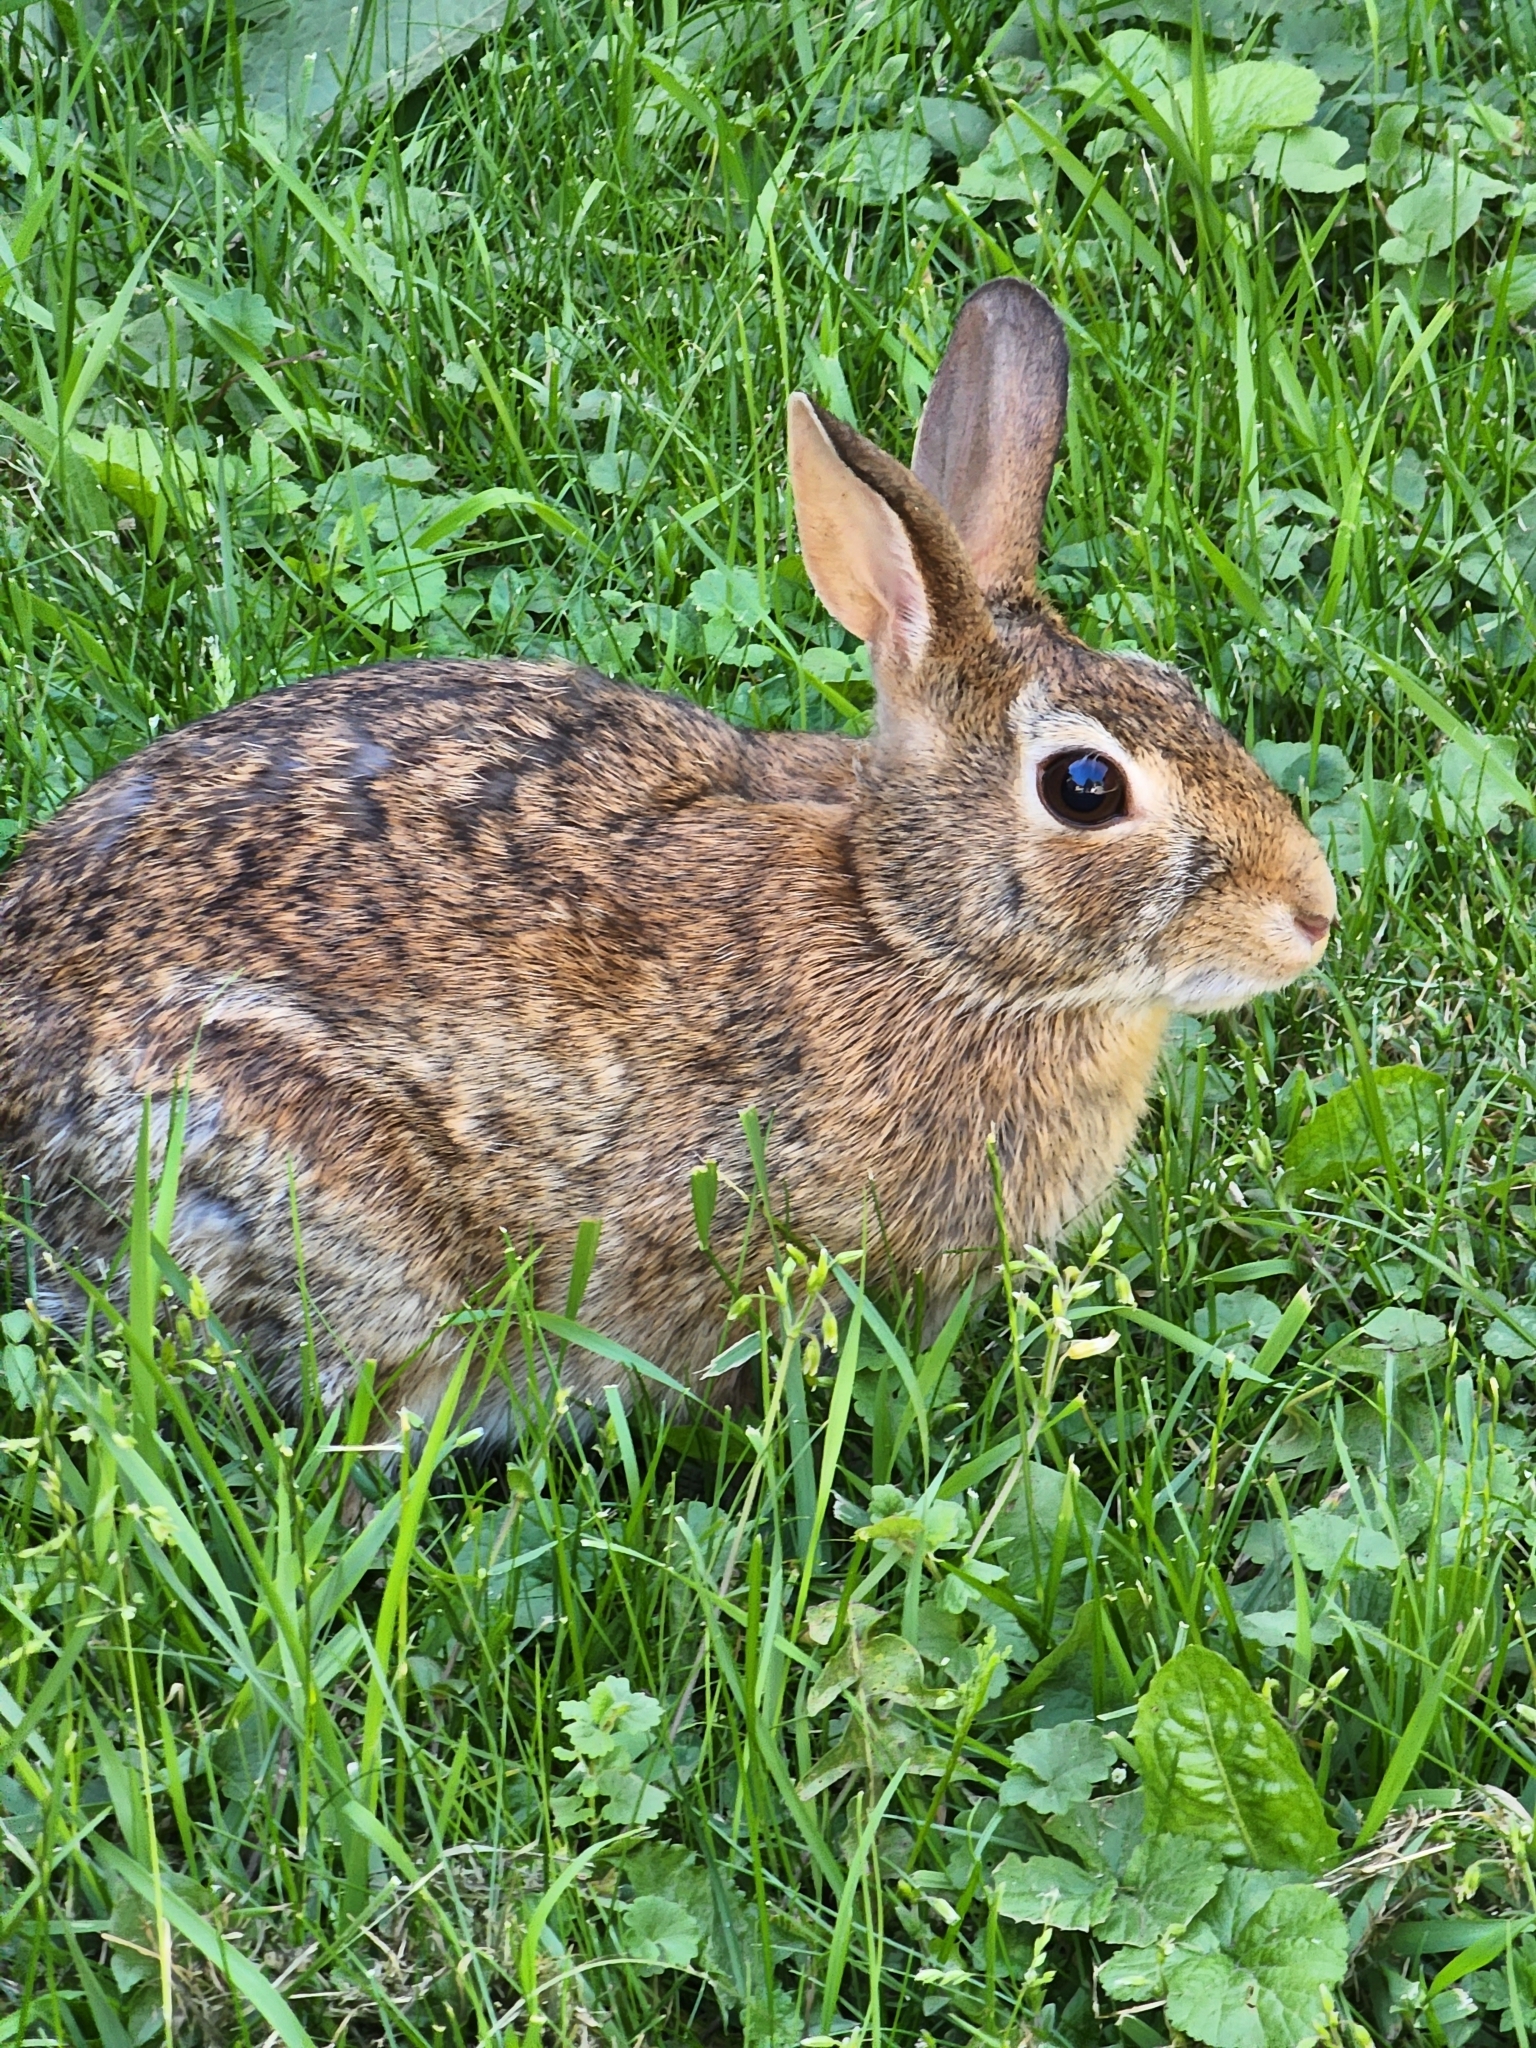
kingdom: Animalia
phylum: Chordata
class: Mammalia
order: Lagomorpha
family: Leporidae
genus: Sylvilagus
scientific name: Sylvilagus floridanus
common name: Eastern cottontail
